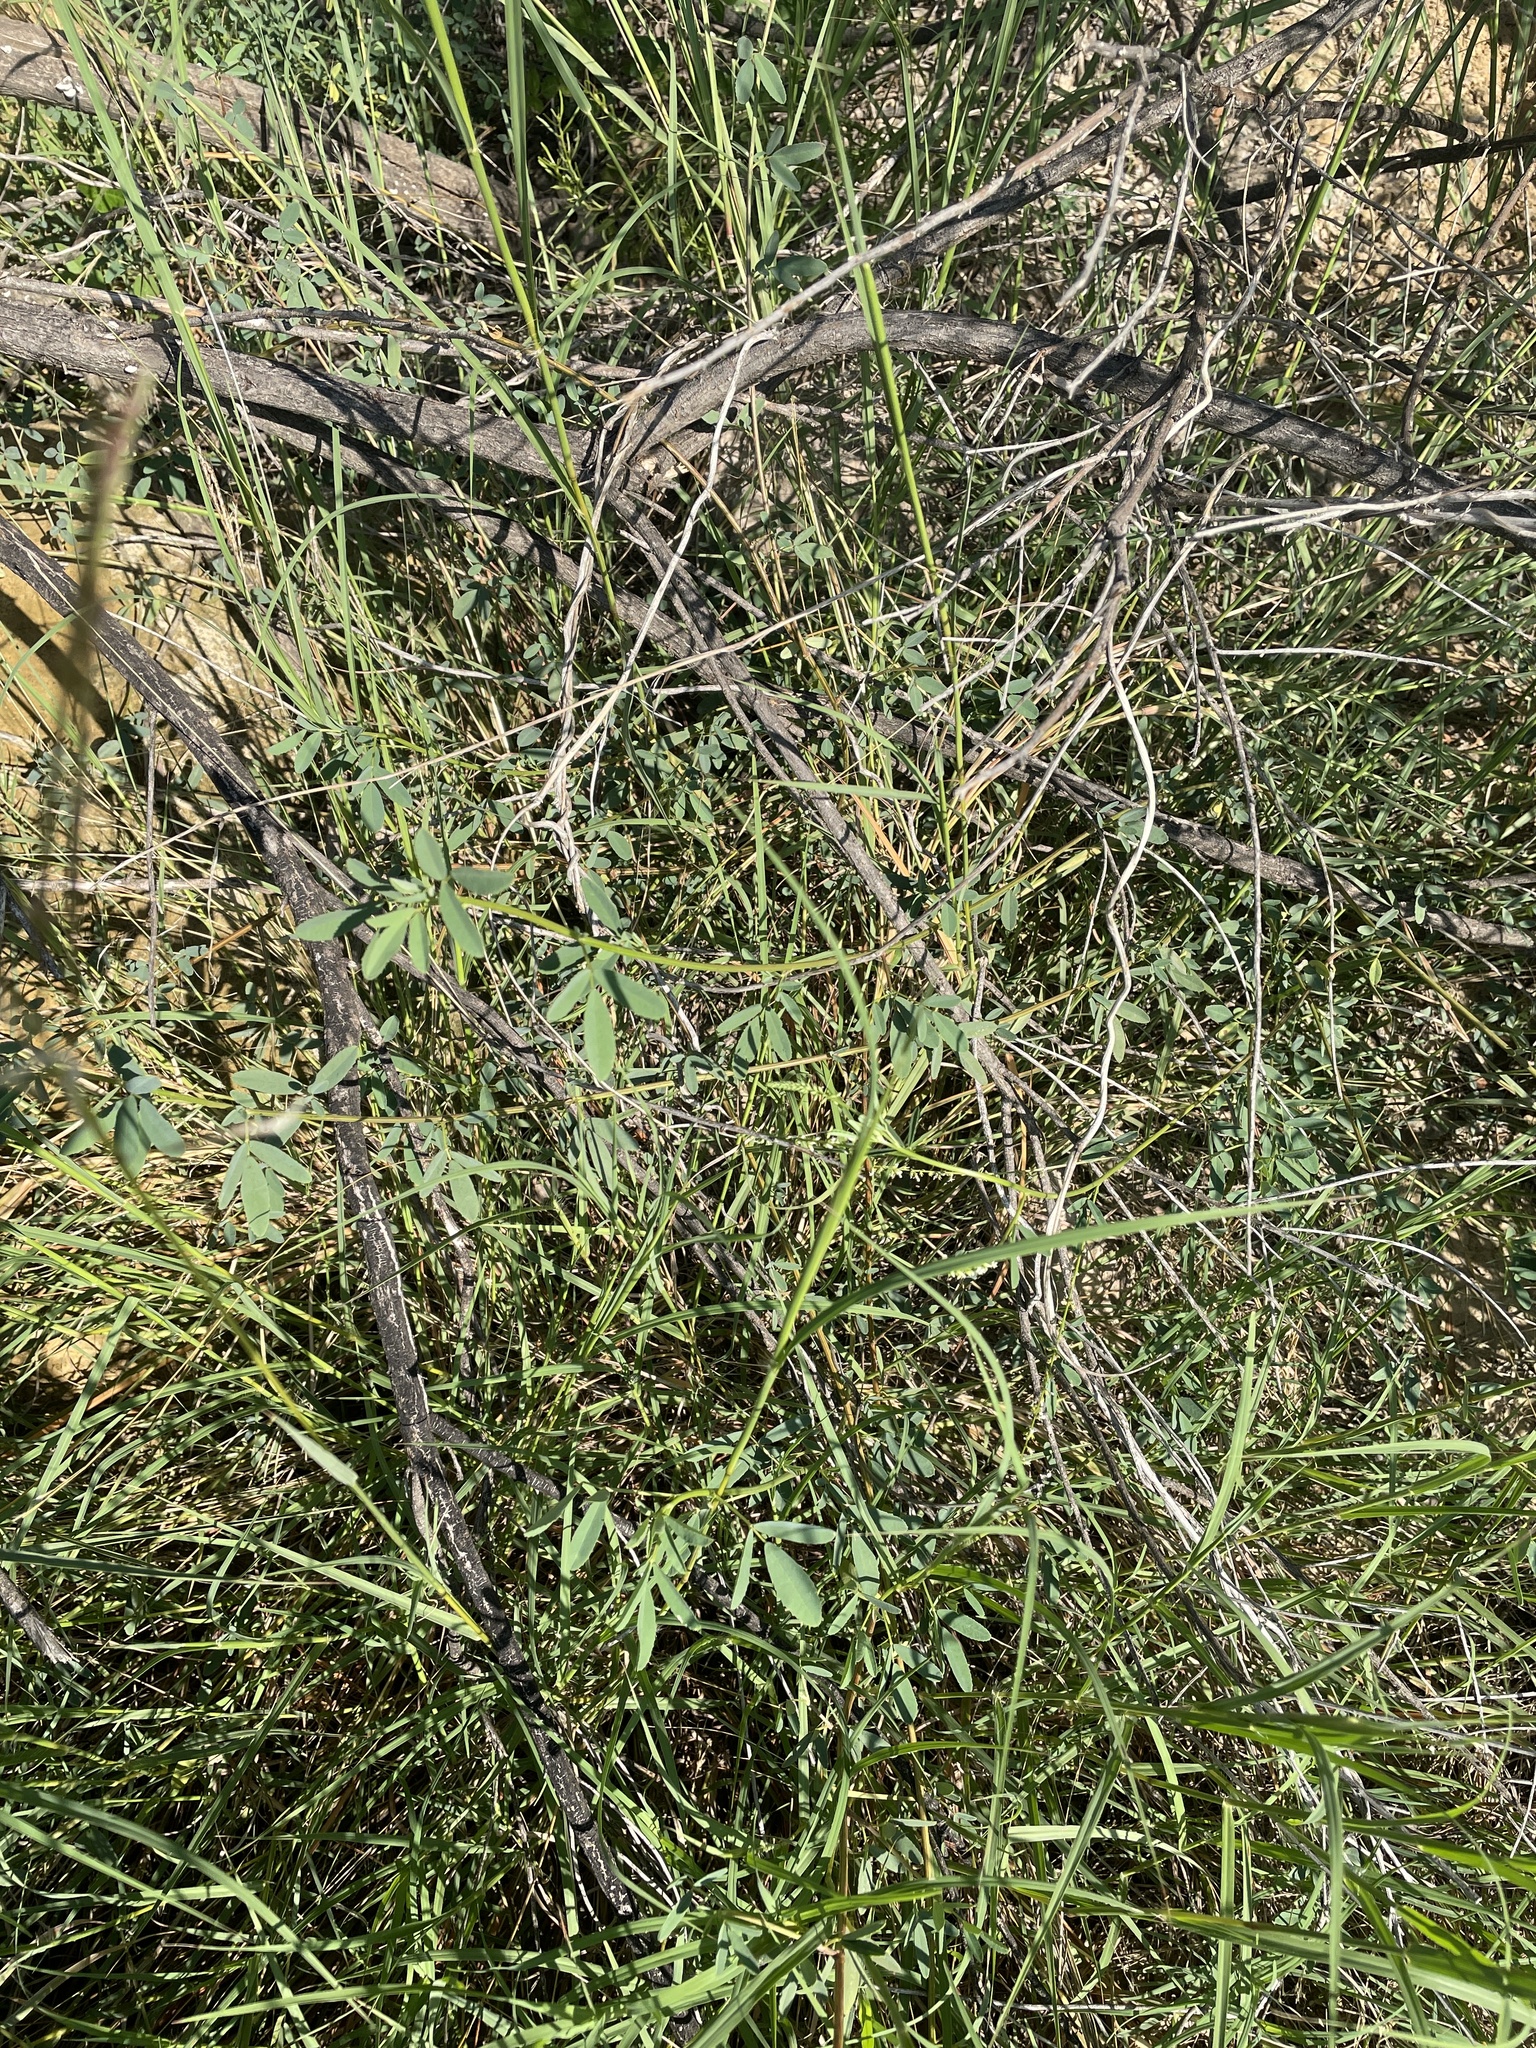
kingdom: Plantae
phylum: Tracheophyta
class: Magnoliopsida
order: Fabales
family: Fabaceae
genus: Melilotus
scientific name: Melilotus albus
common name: White melilot
